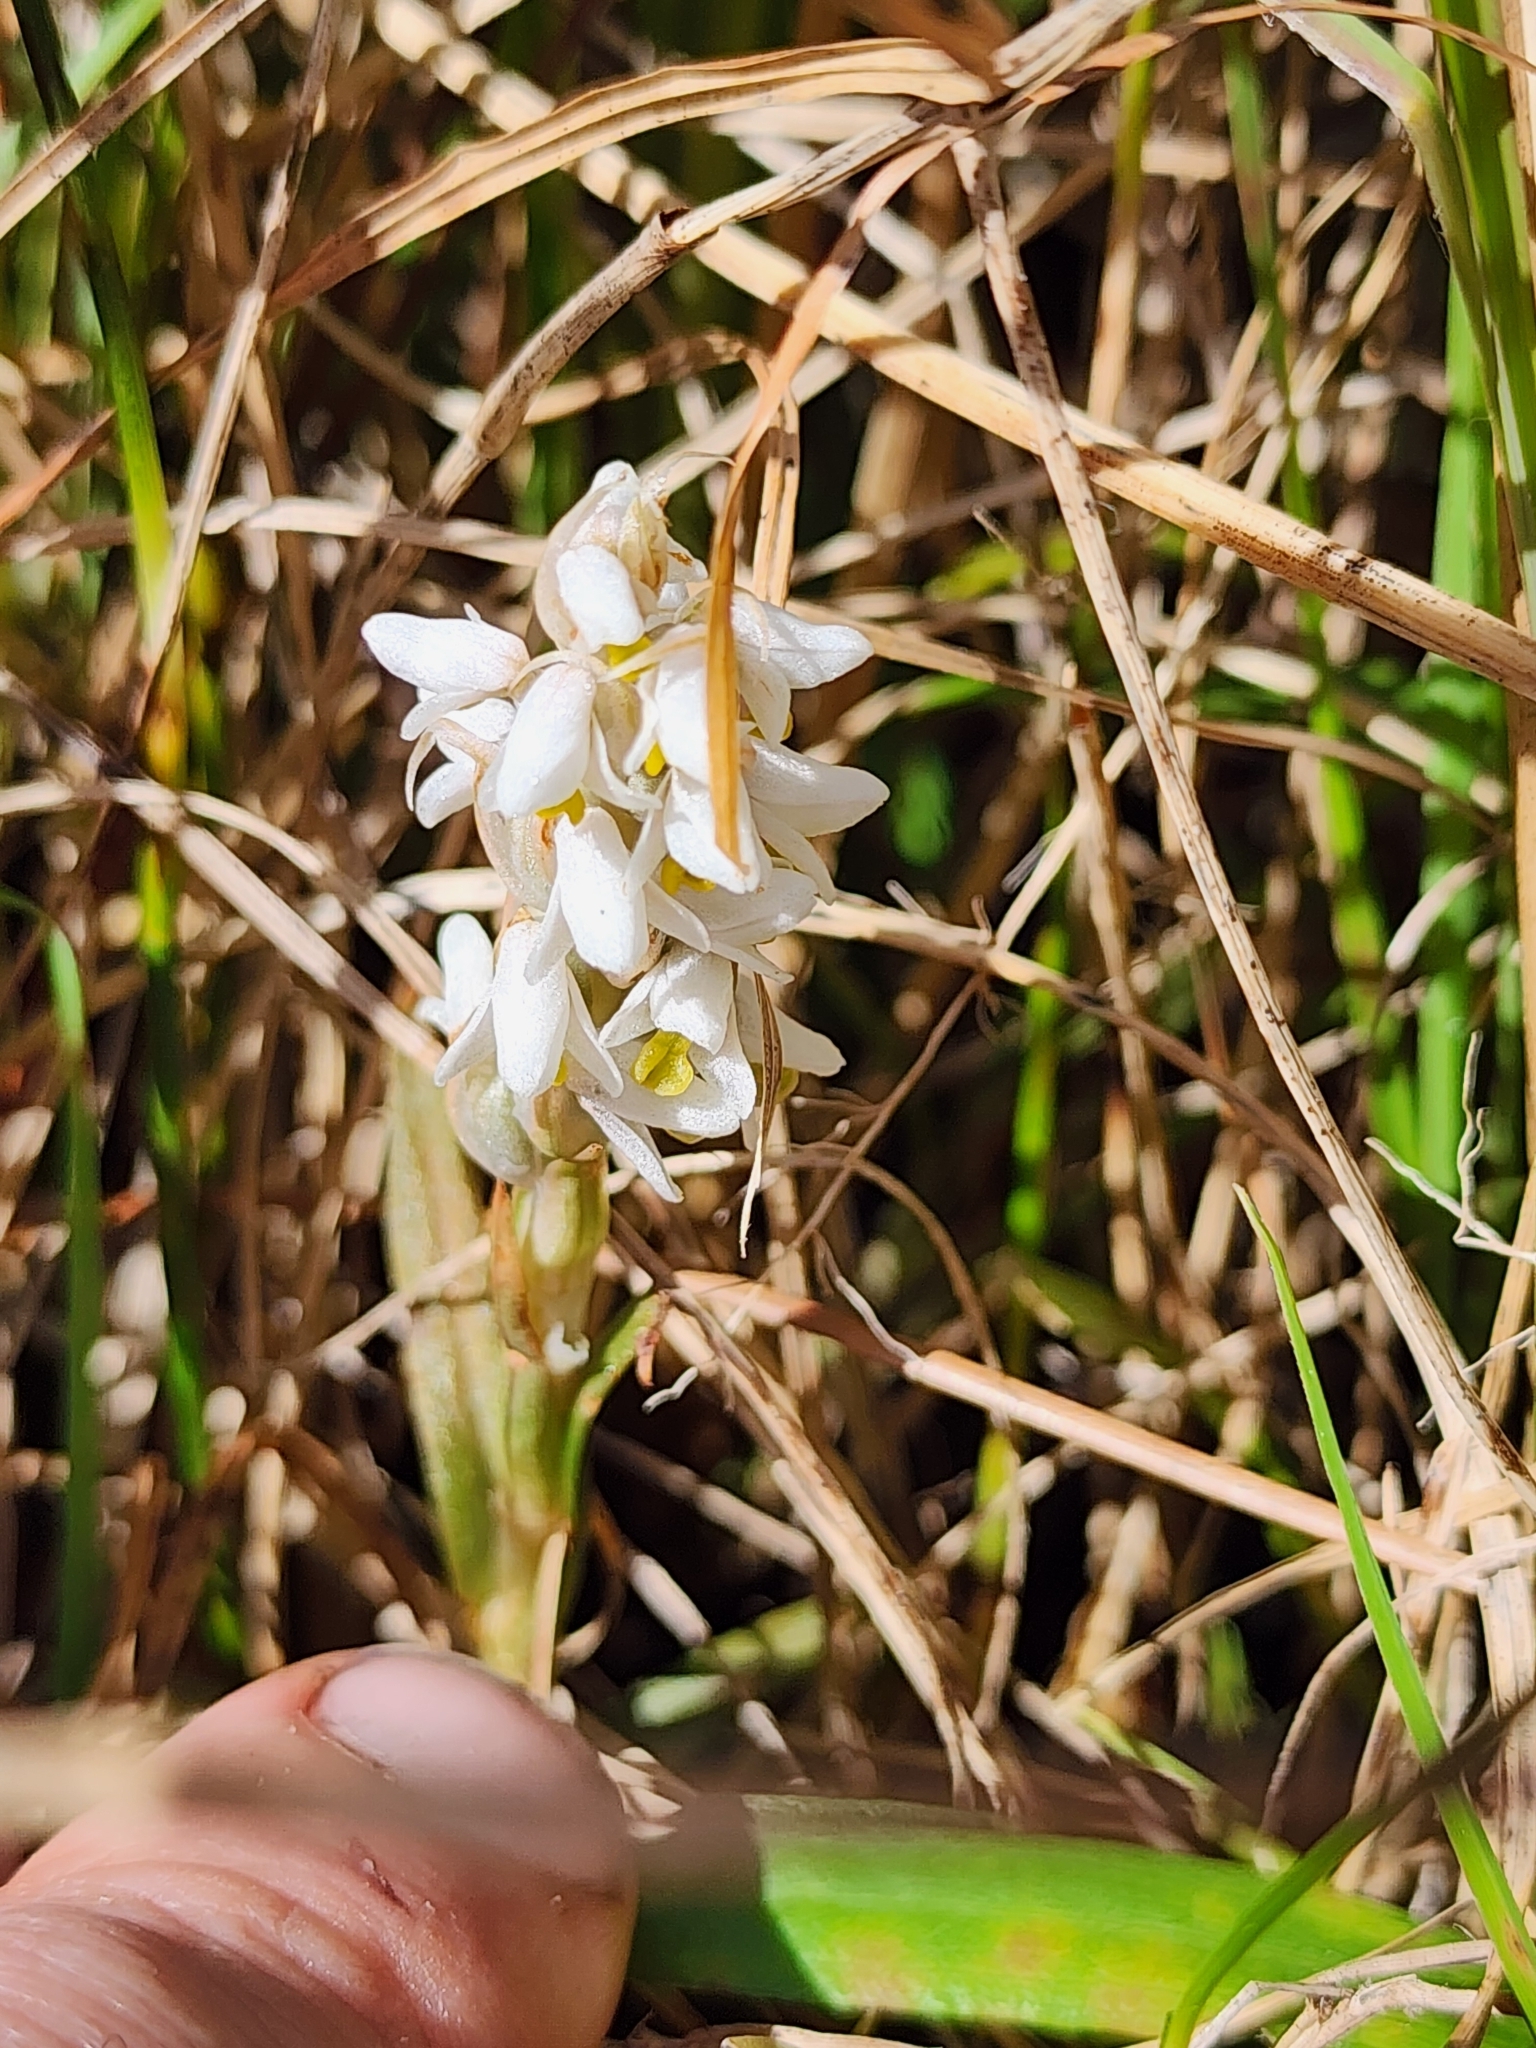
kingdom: Plantae
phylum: Tracheophyta
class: Liliopsida
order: Asparagales
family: Orchidaceae
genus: Zeuxine
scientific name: Zeuxine strateumatica
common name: Soldier's orchid
